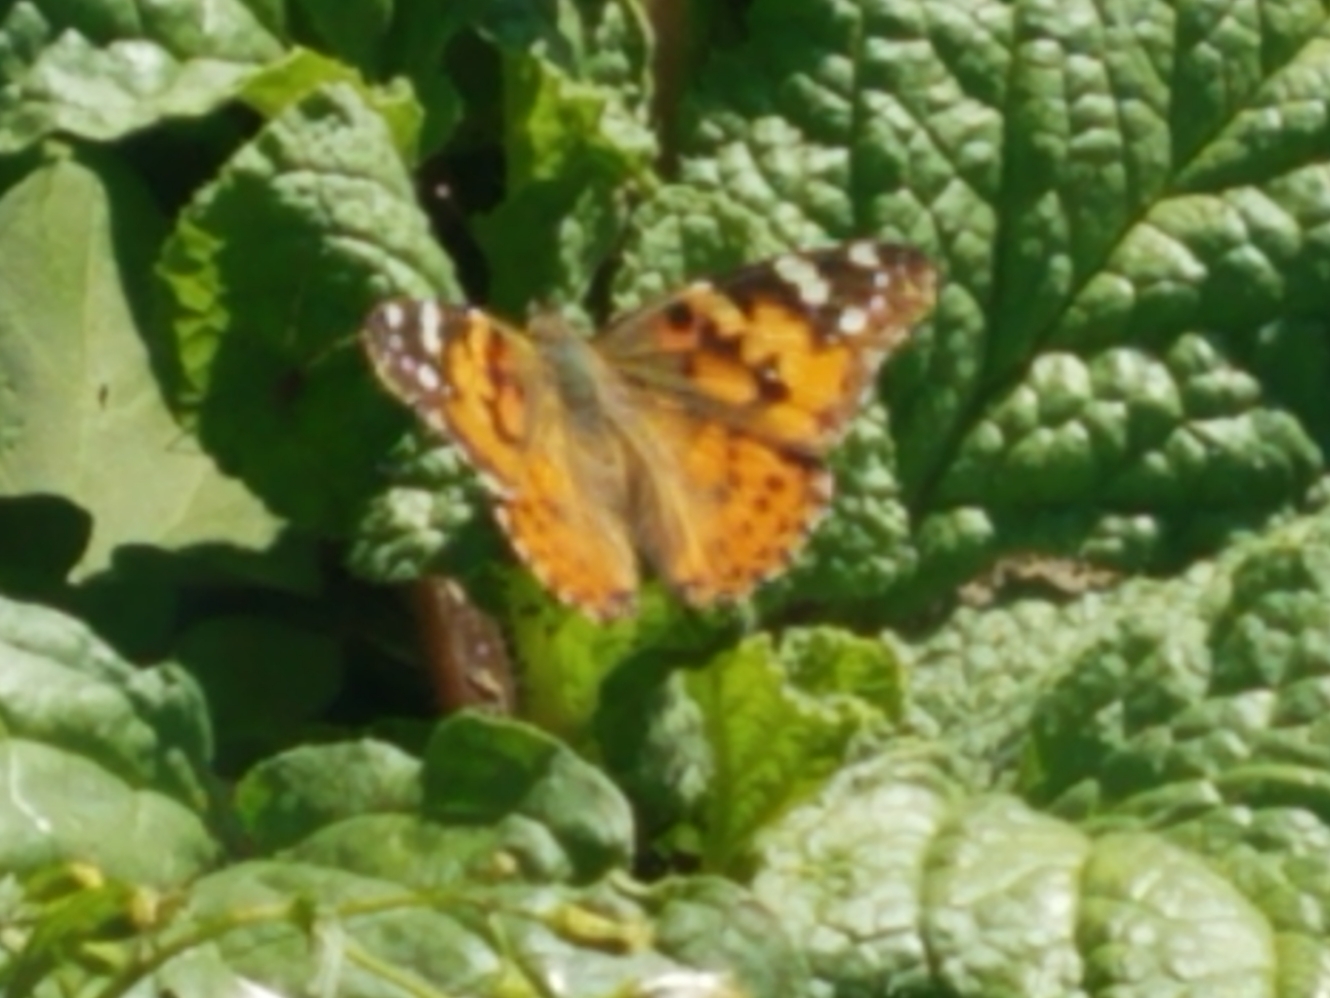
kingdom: Animalia
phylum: Arthropoda
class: Insecta
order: Lepidoptera
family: Nymphalidae
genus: Vanessa
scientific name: Vanessa cardui
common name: Painted lady
